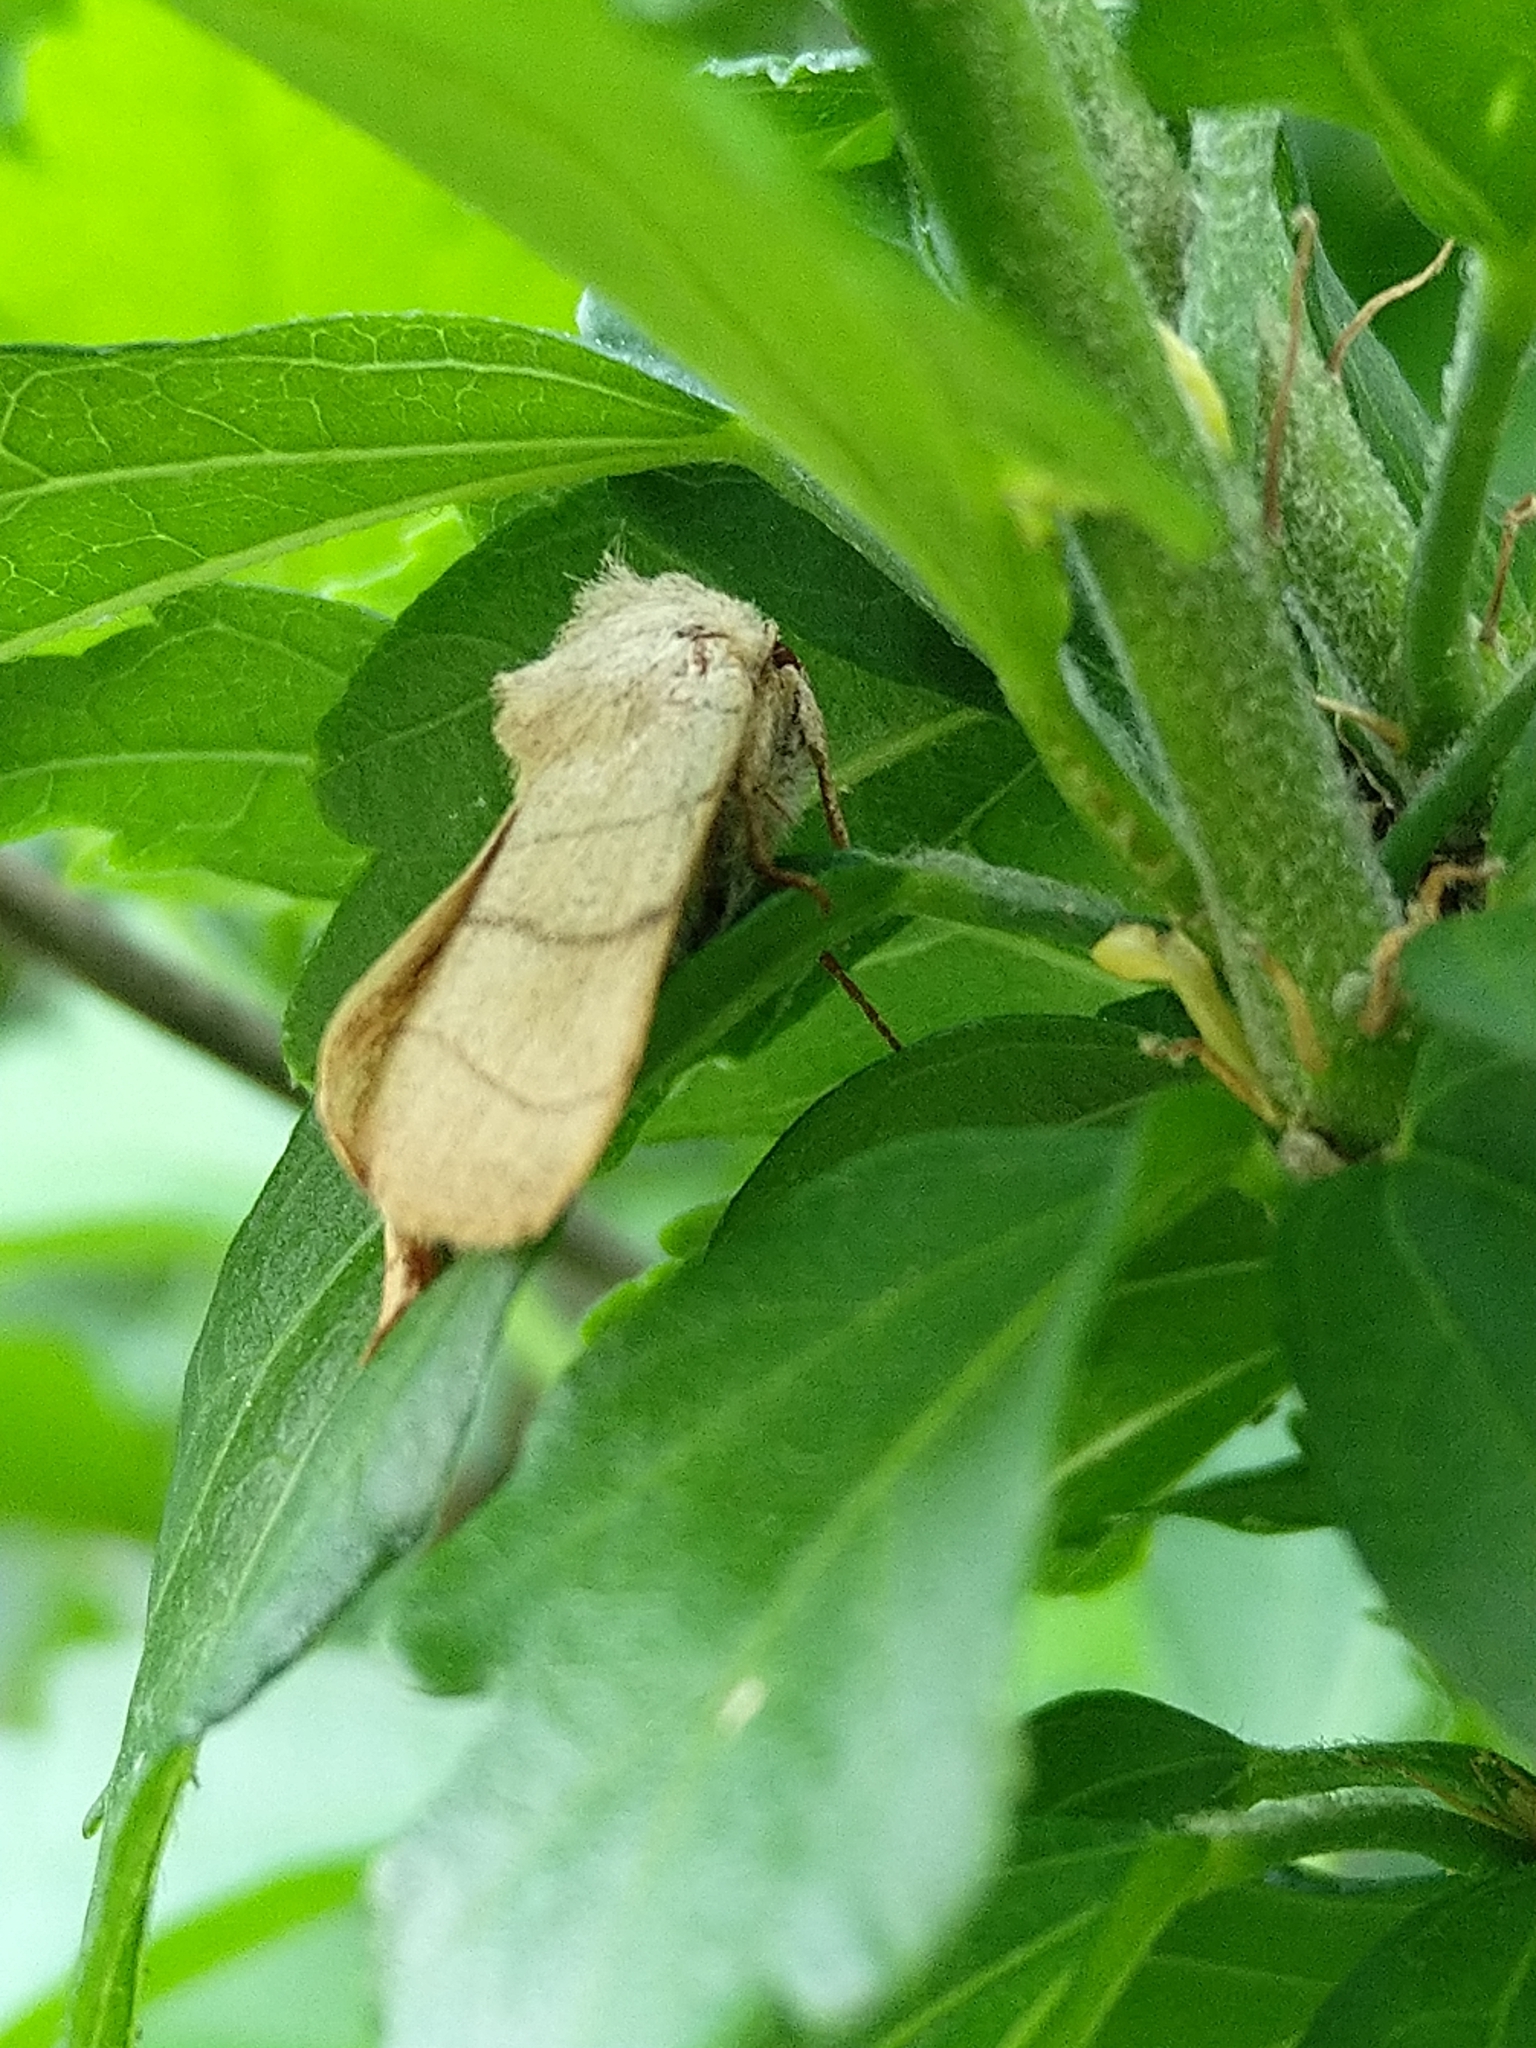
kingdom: Animalia
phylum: Arthropoda
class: Insecta
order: Lepidoptera
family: Noctuidae
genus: Charanyca
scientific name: Charanyca trigrammica
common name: Treble lines
